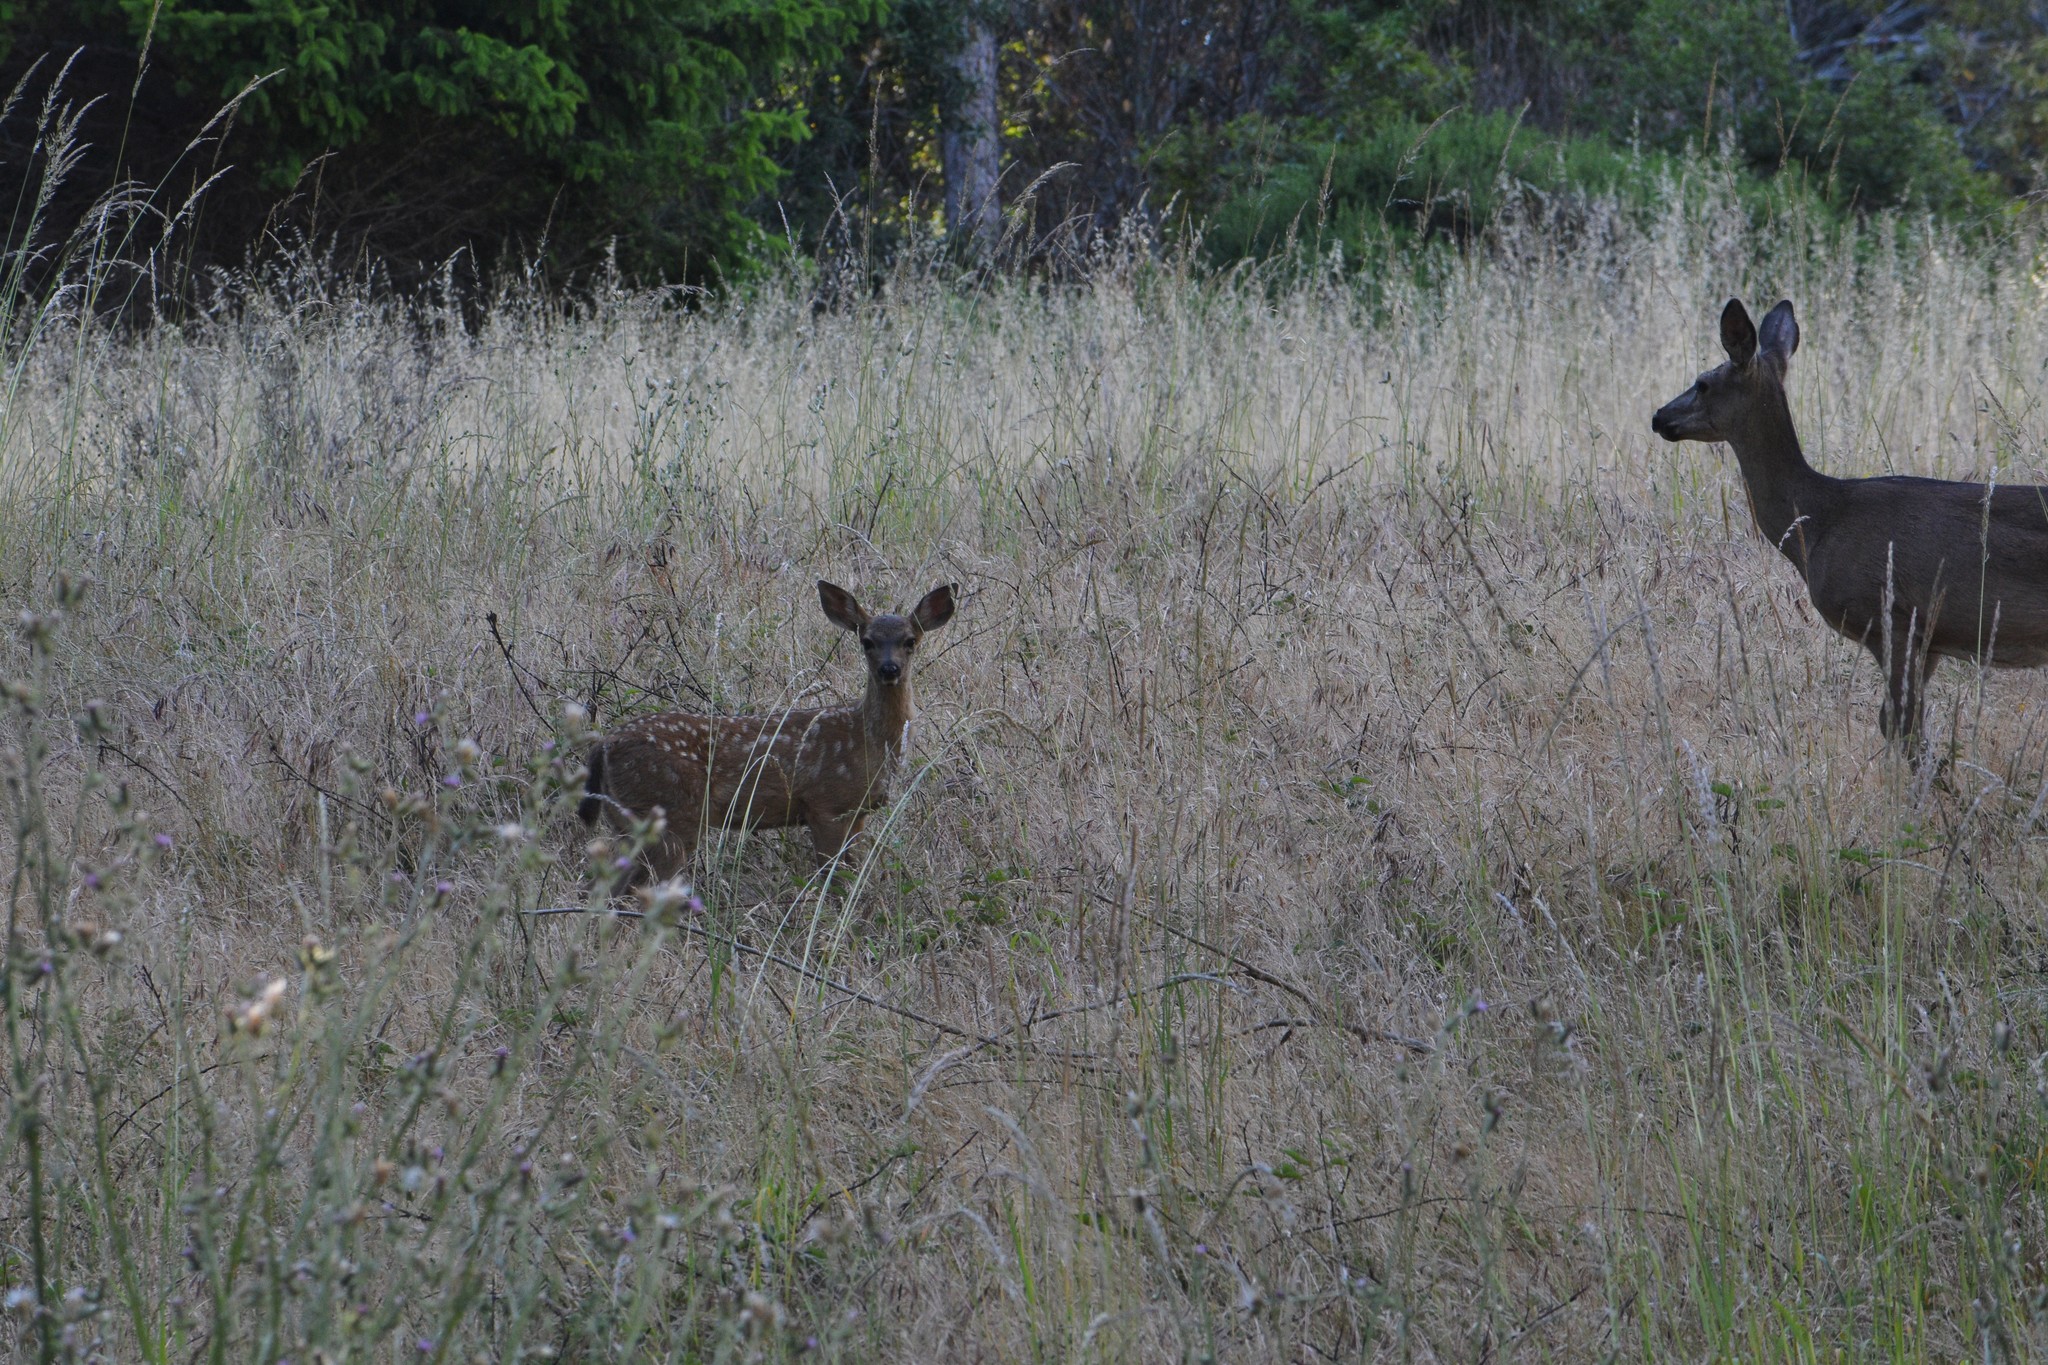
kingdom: Animalia
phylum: Chordata
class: Mammalia
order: Artiodactyla
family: Cervidae
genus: Odocoileus
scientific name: Odocoileus hemionus
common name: Mule deer
